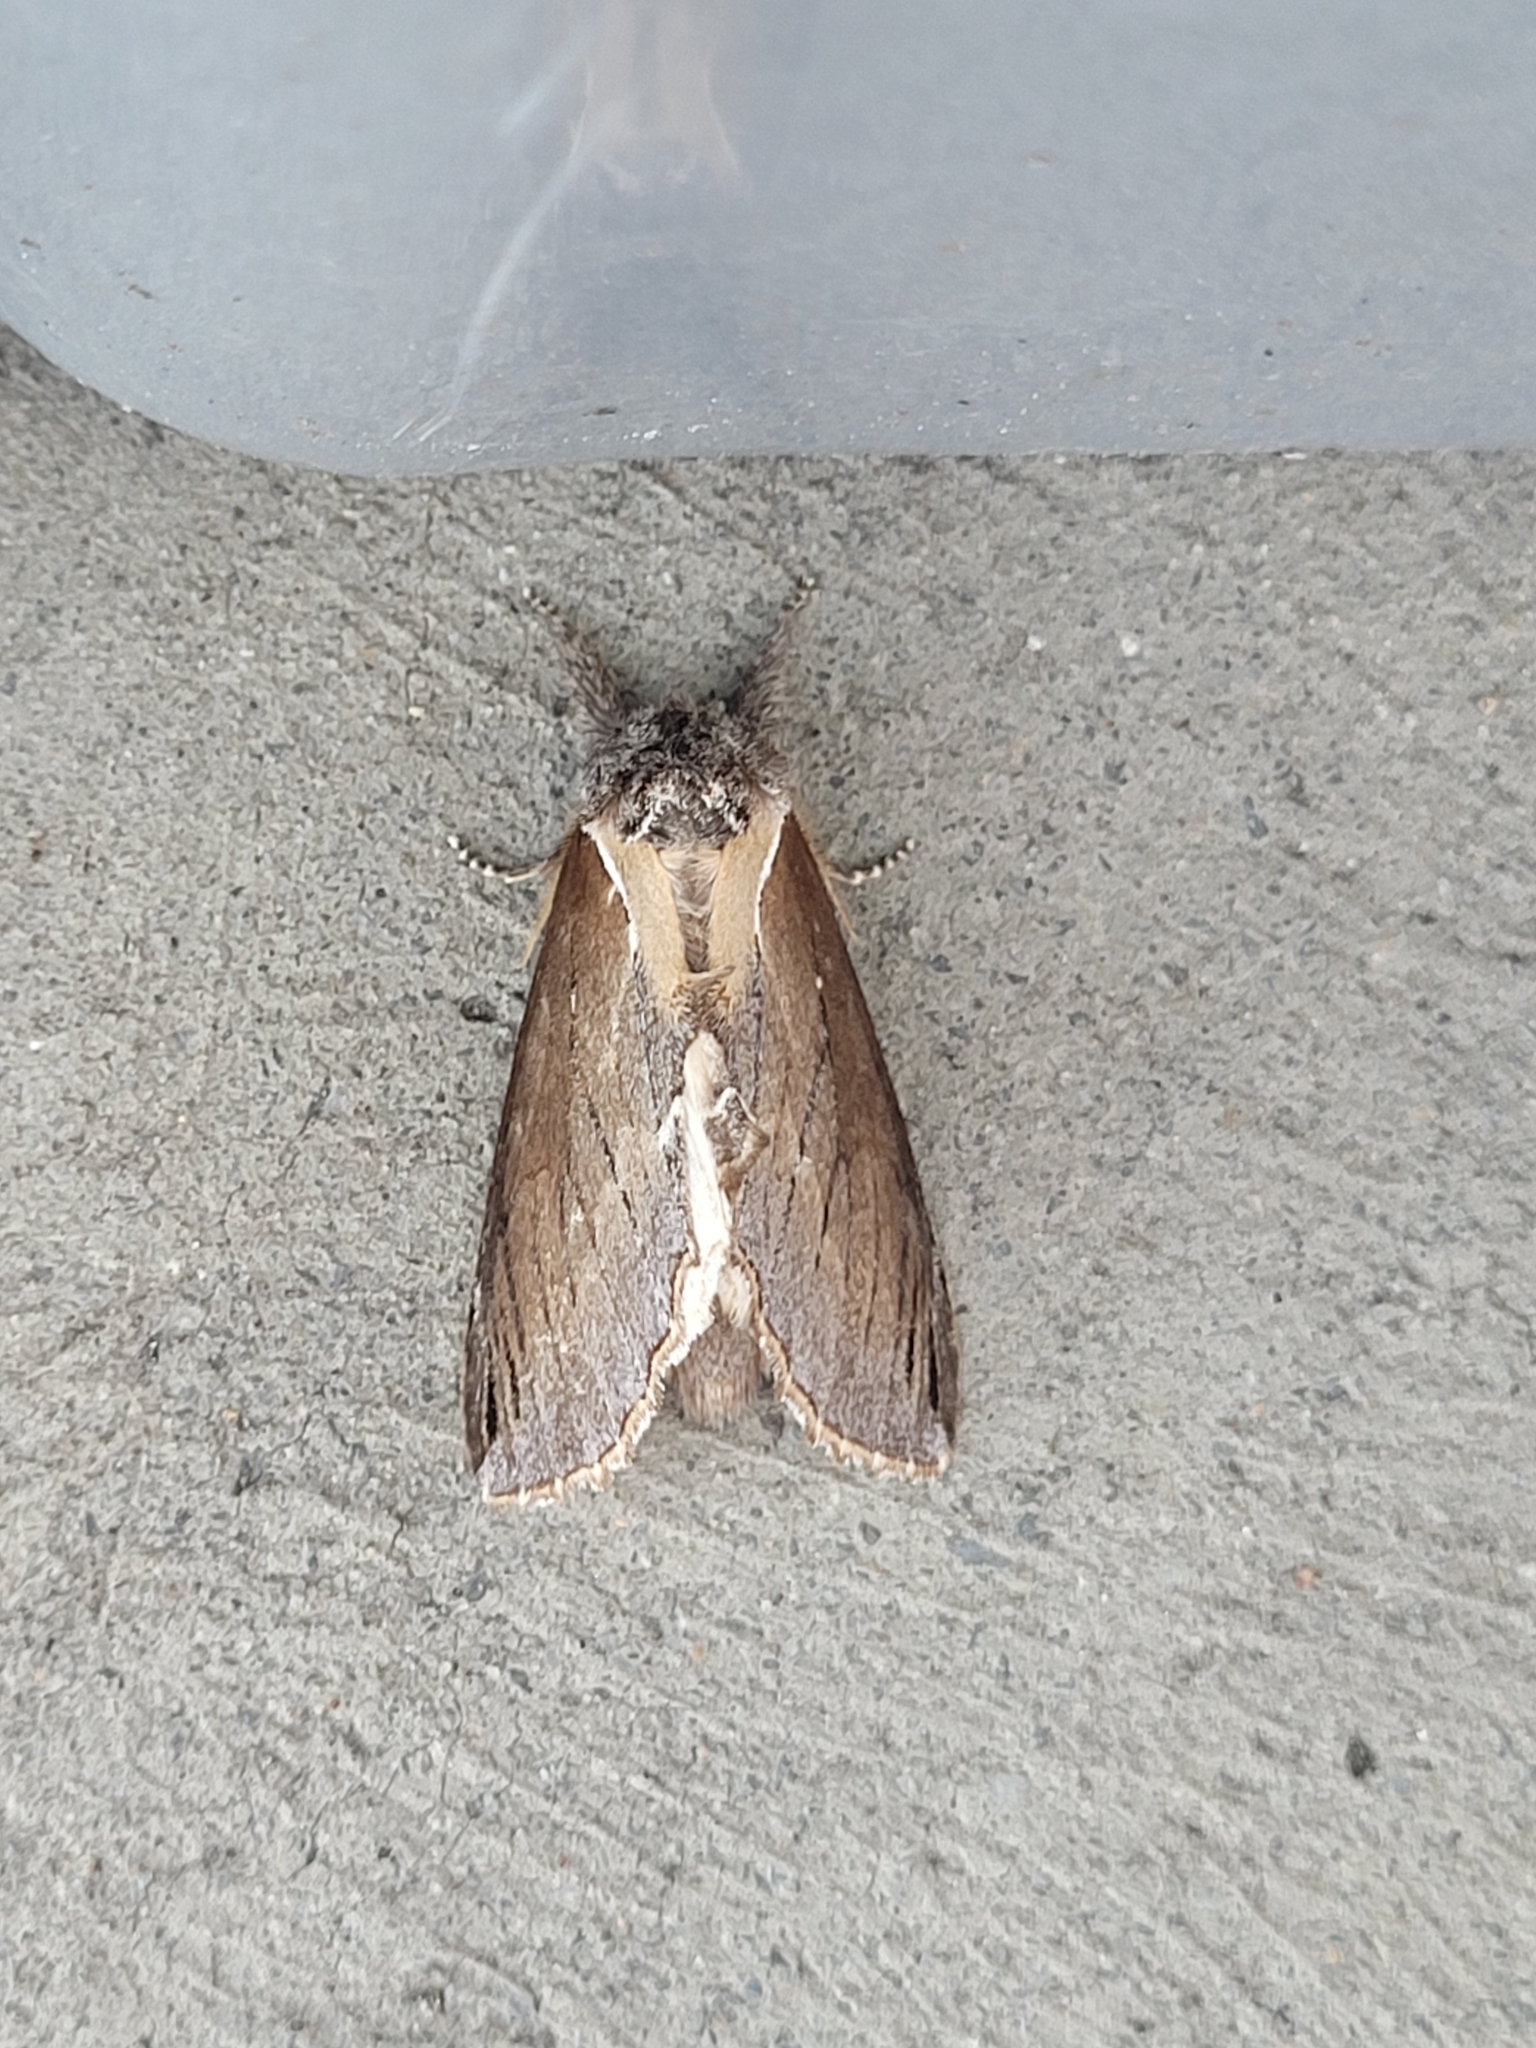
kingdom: Animalia
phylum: Arthropoda
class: Insecta
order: Lepidoptera
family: Notodontidae
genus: Pheosidea
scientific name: Pheosidea elegans
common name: Elegant prominent
